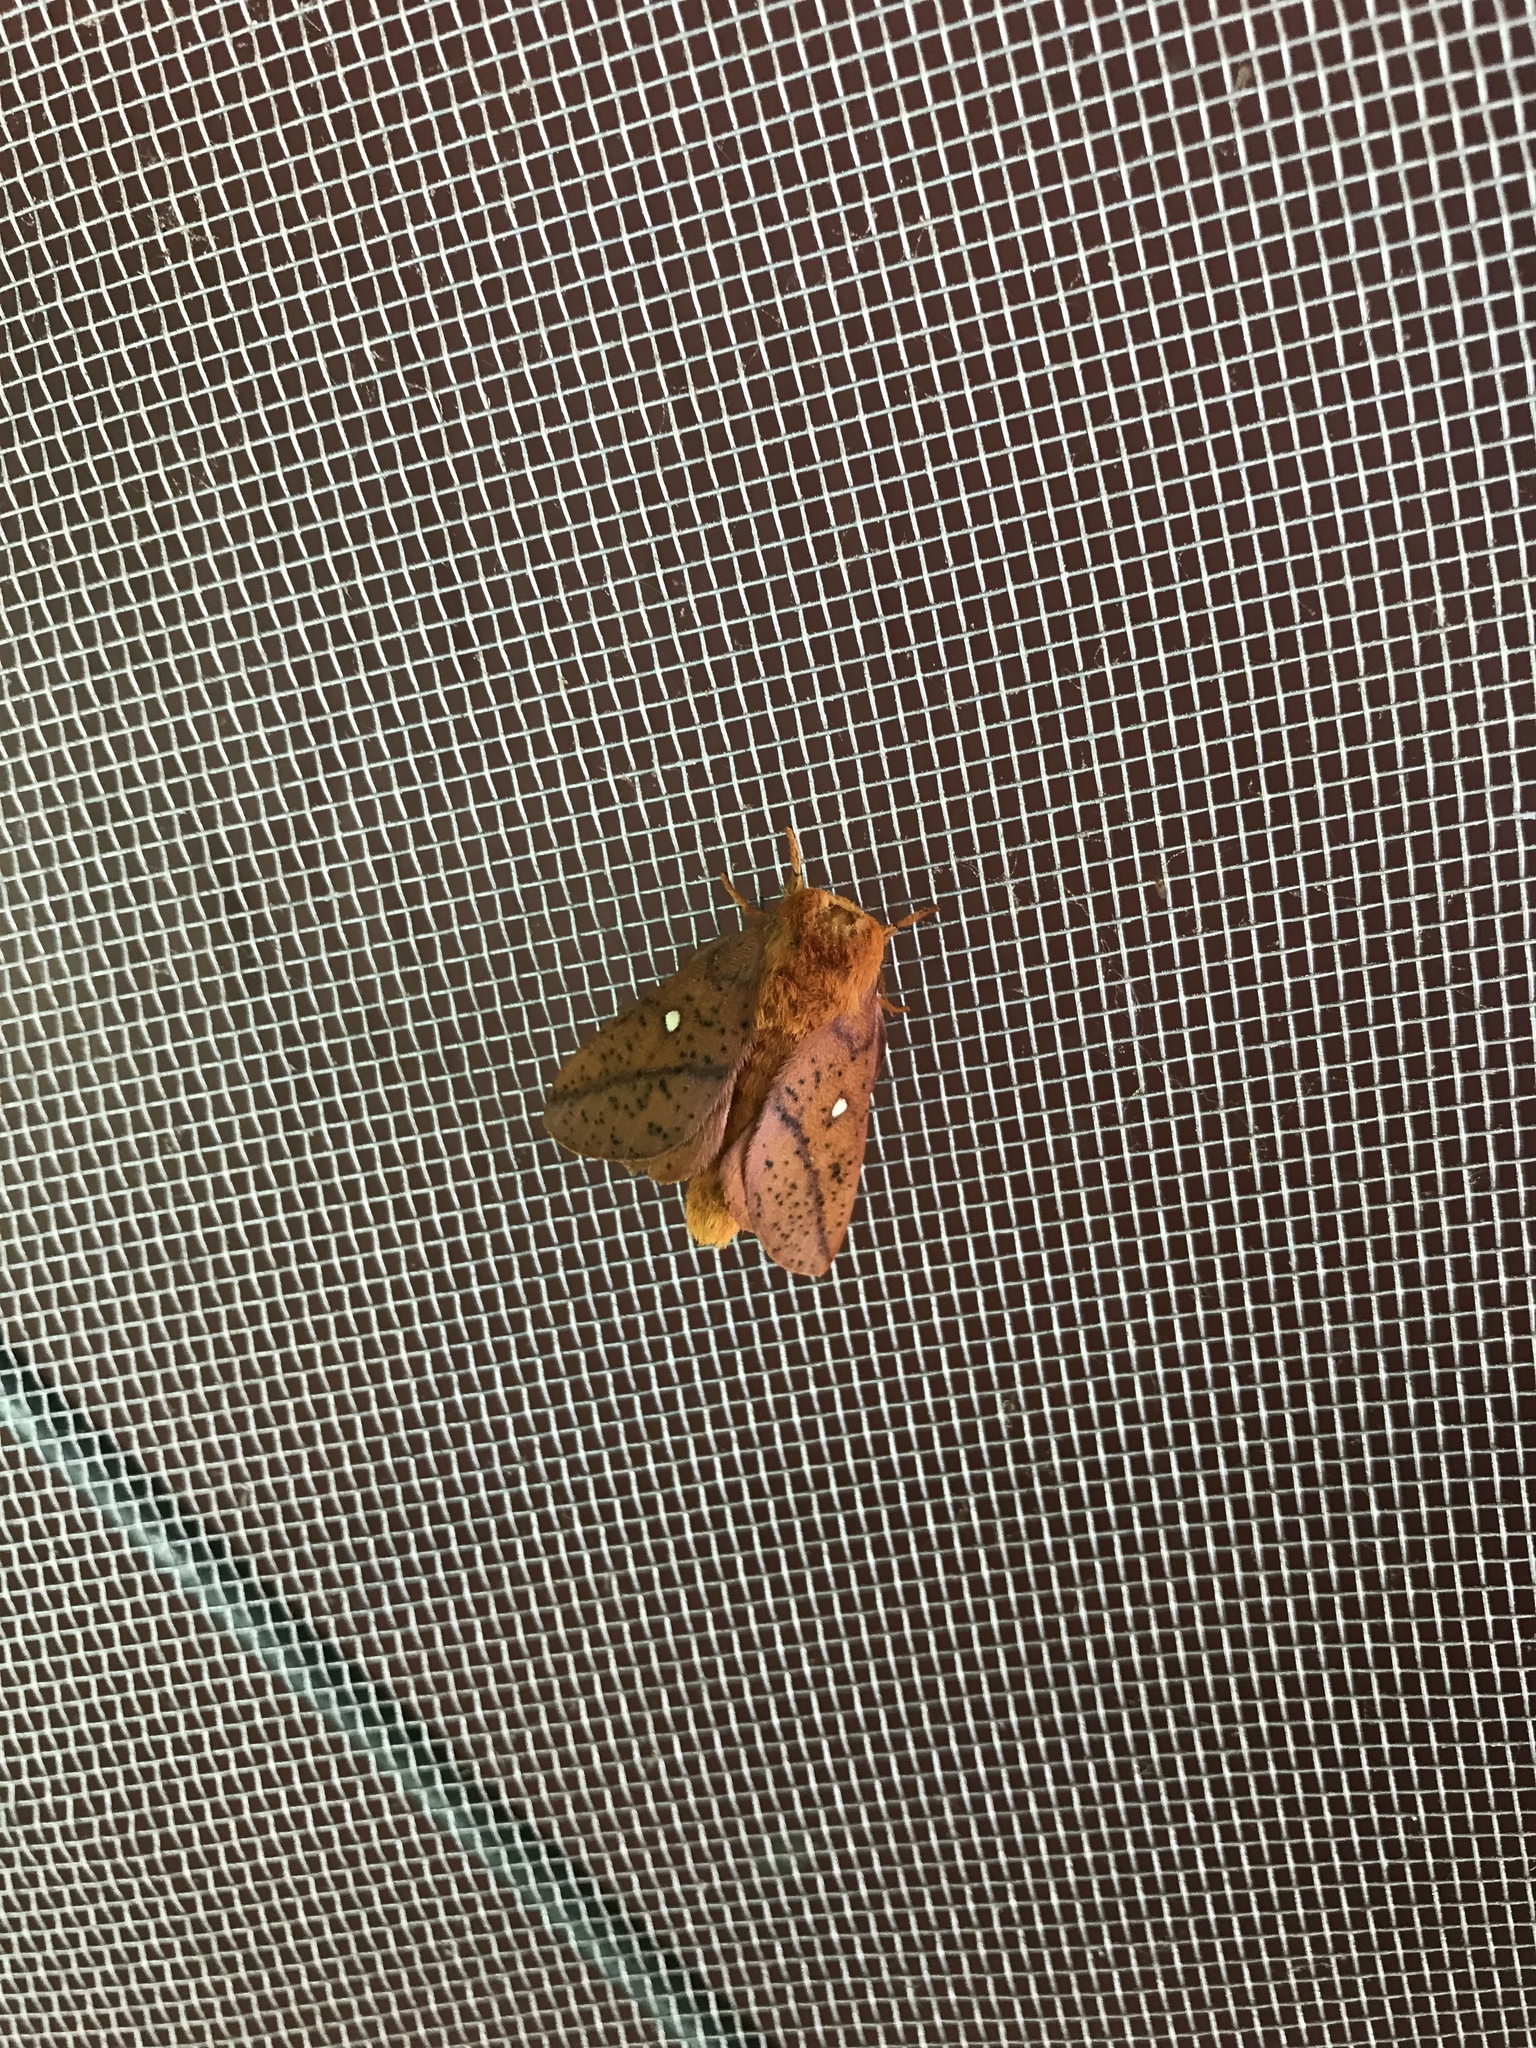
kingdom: Animalia
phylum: Arthropoda
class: Insecta
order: Lepidoptera
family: Saturniidae
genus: Anisota
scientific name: Anisota stigma
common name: Spiny oakworm moth
